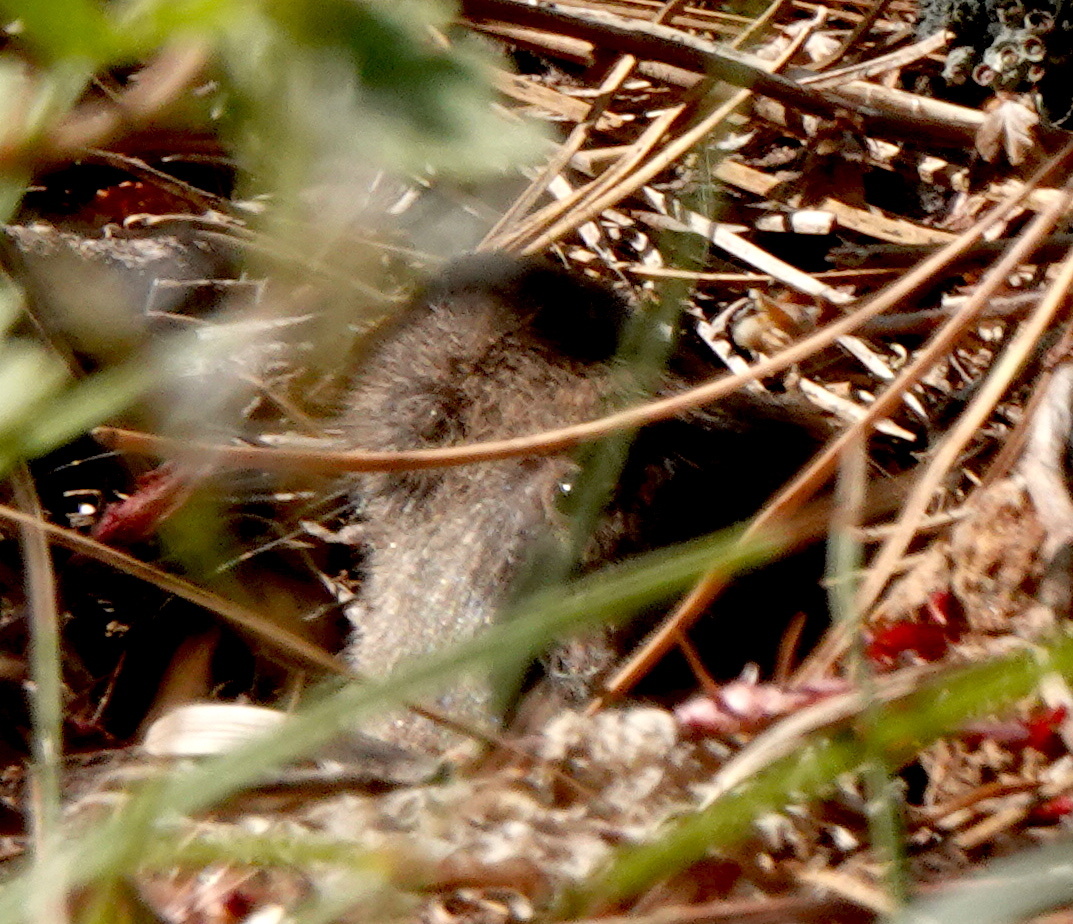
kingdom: Animalia
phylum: Chordata
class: Mammalia
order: Rodentia
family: Geomyidae
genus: Thomomys
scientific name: Thomomys bottae
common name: Botta's pocket gopher
